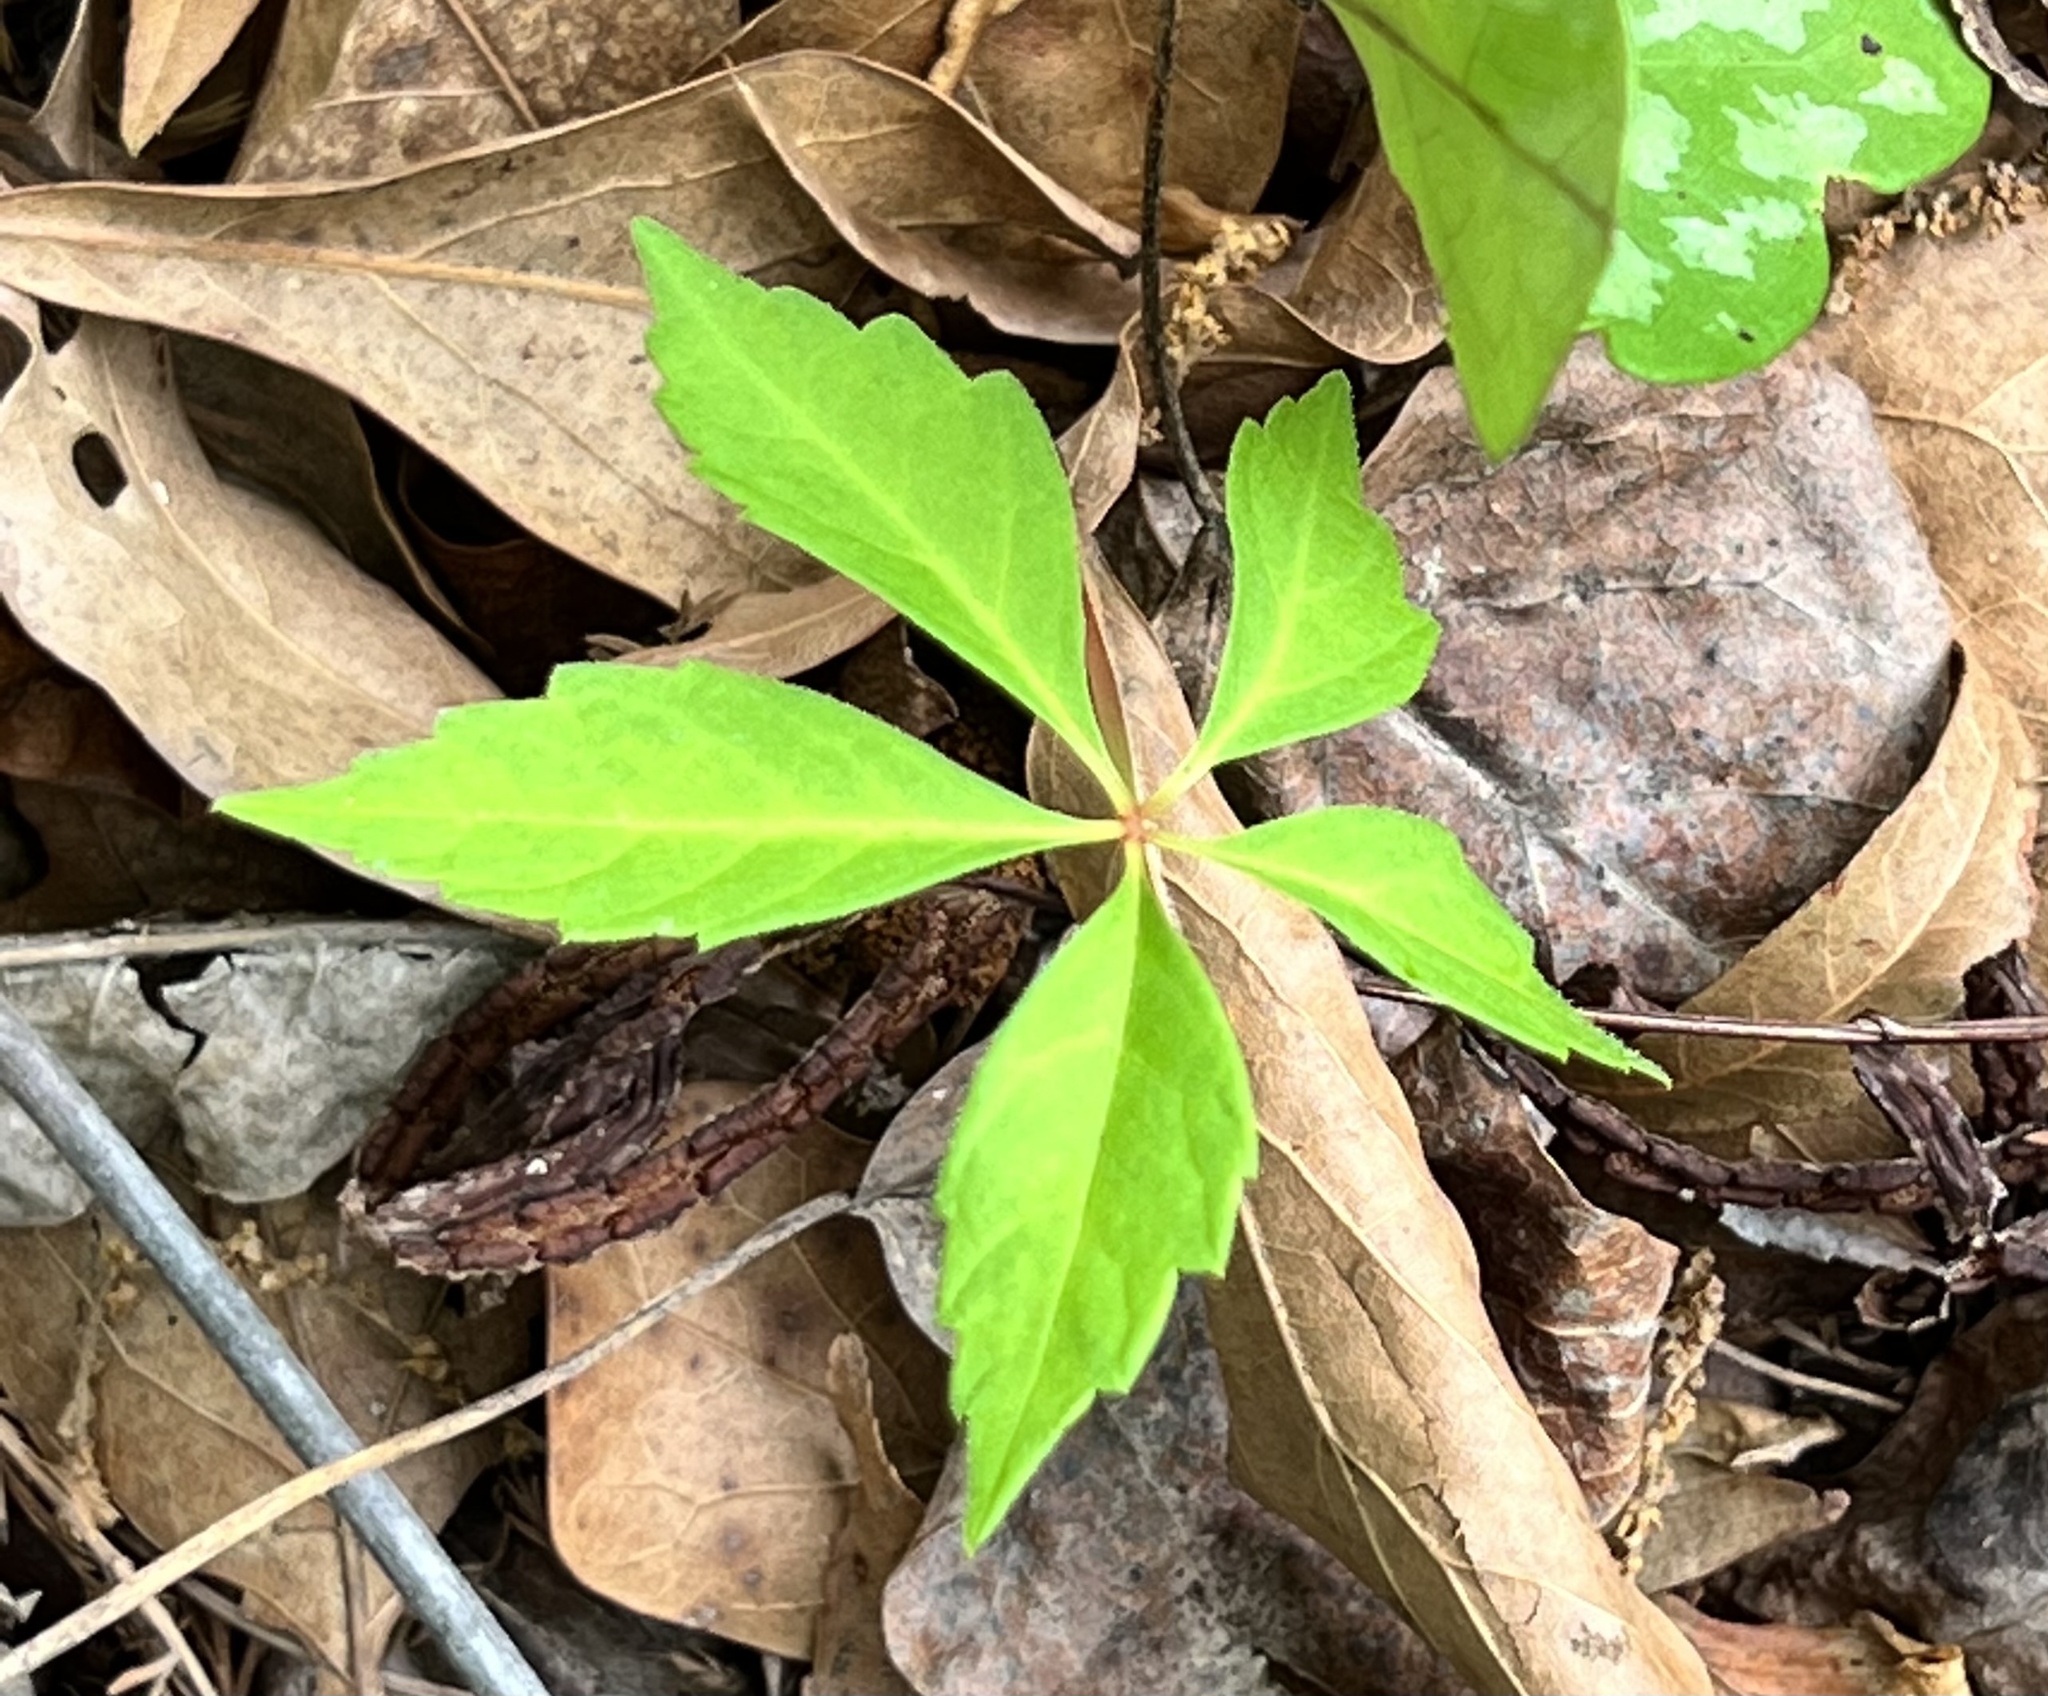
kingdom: Plantae
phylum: Tracheophyta
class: Magnoliopsida
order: Vitales
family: Vitaceae
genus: Parthenocissus
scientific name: Parthenocissus quinquefolia
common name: Virginia-creeper
